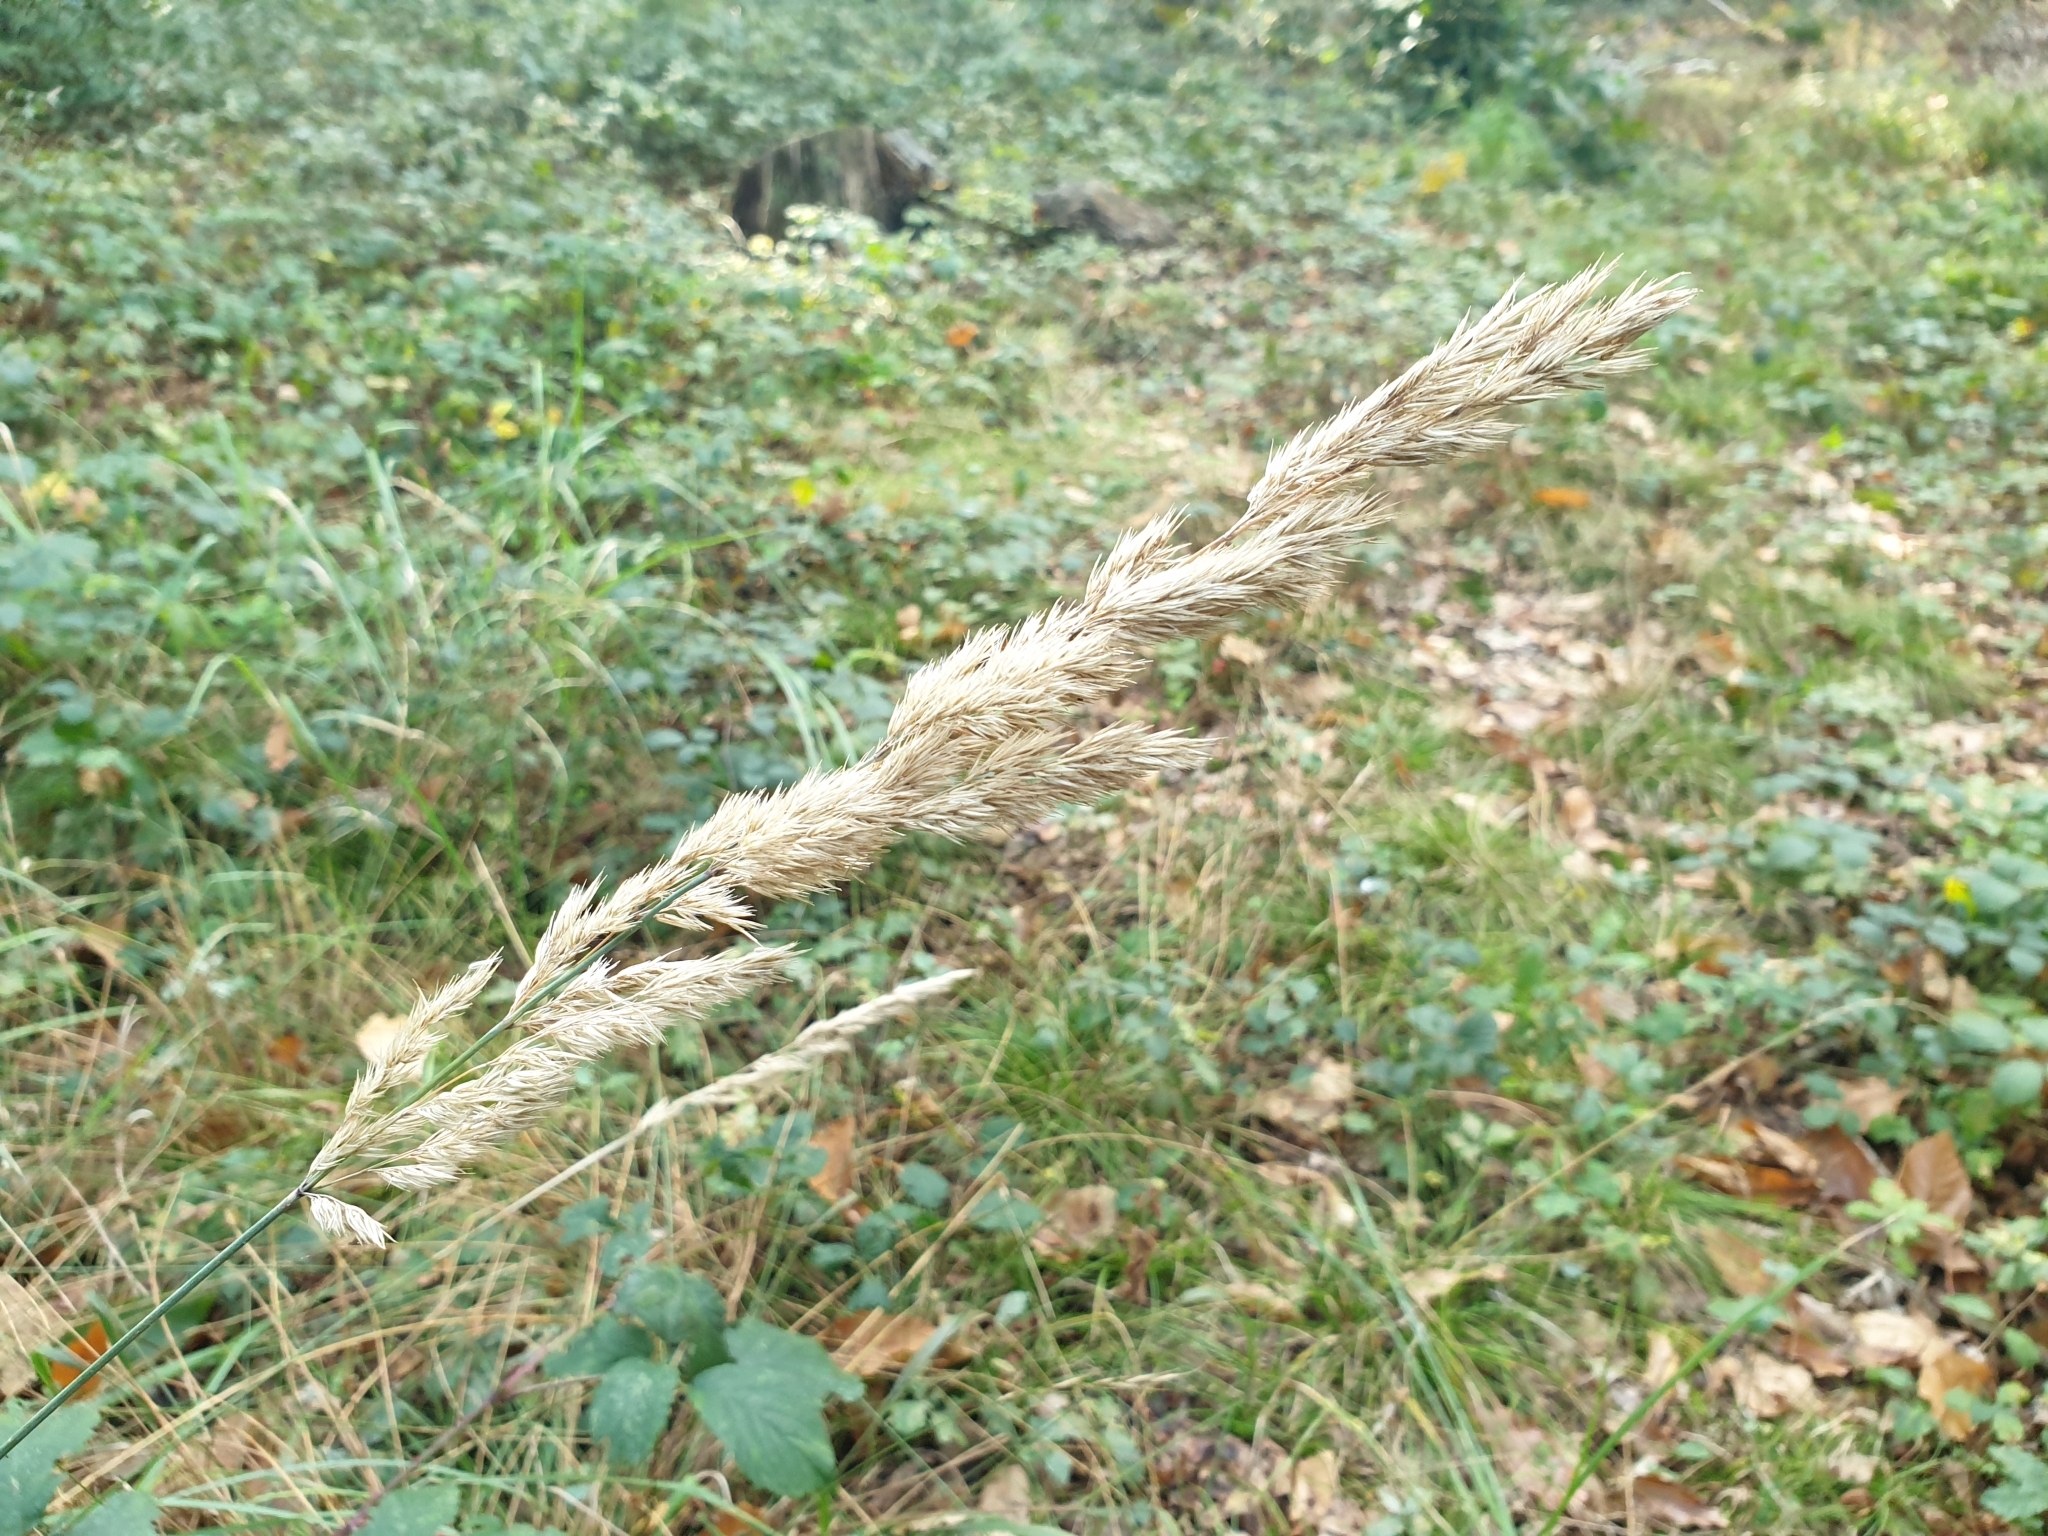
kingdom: Plantae
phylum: Tracheophyta
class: Liliopsida
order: Poales
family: Poaceae
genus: Calamagrostis
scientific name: Calamagrostis epigejos
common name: Wood small-reed
